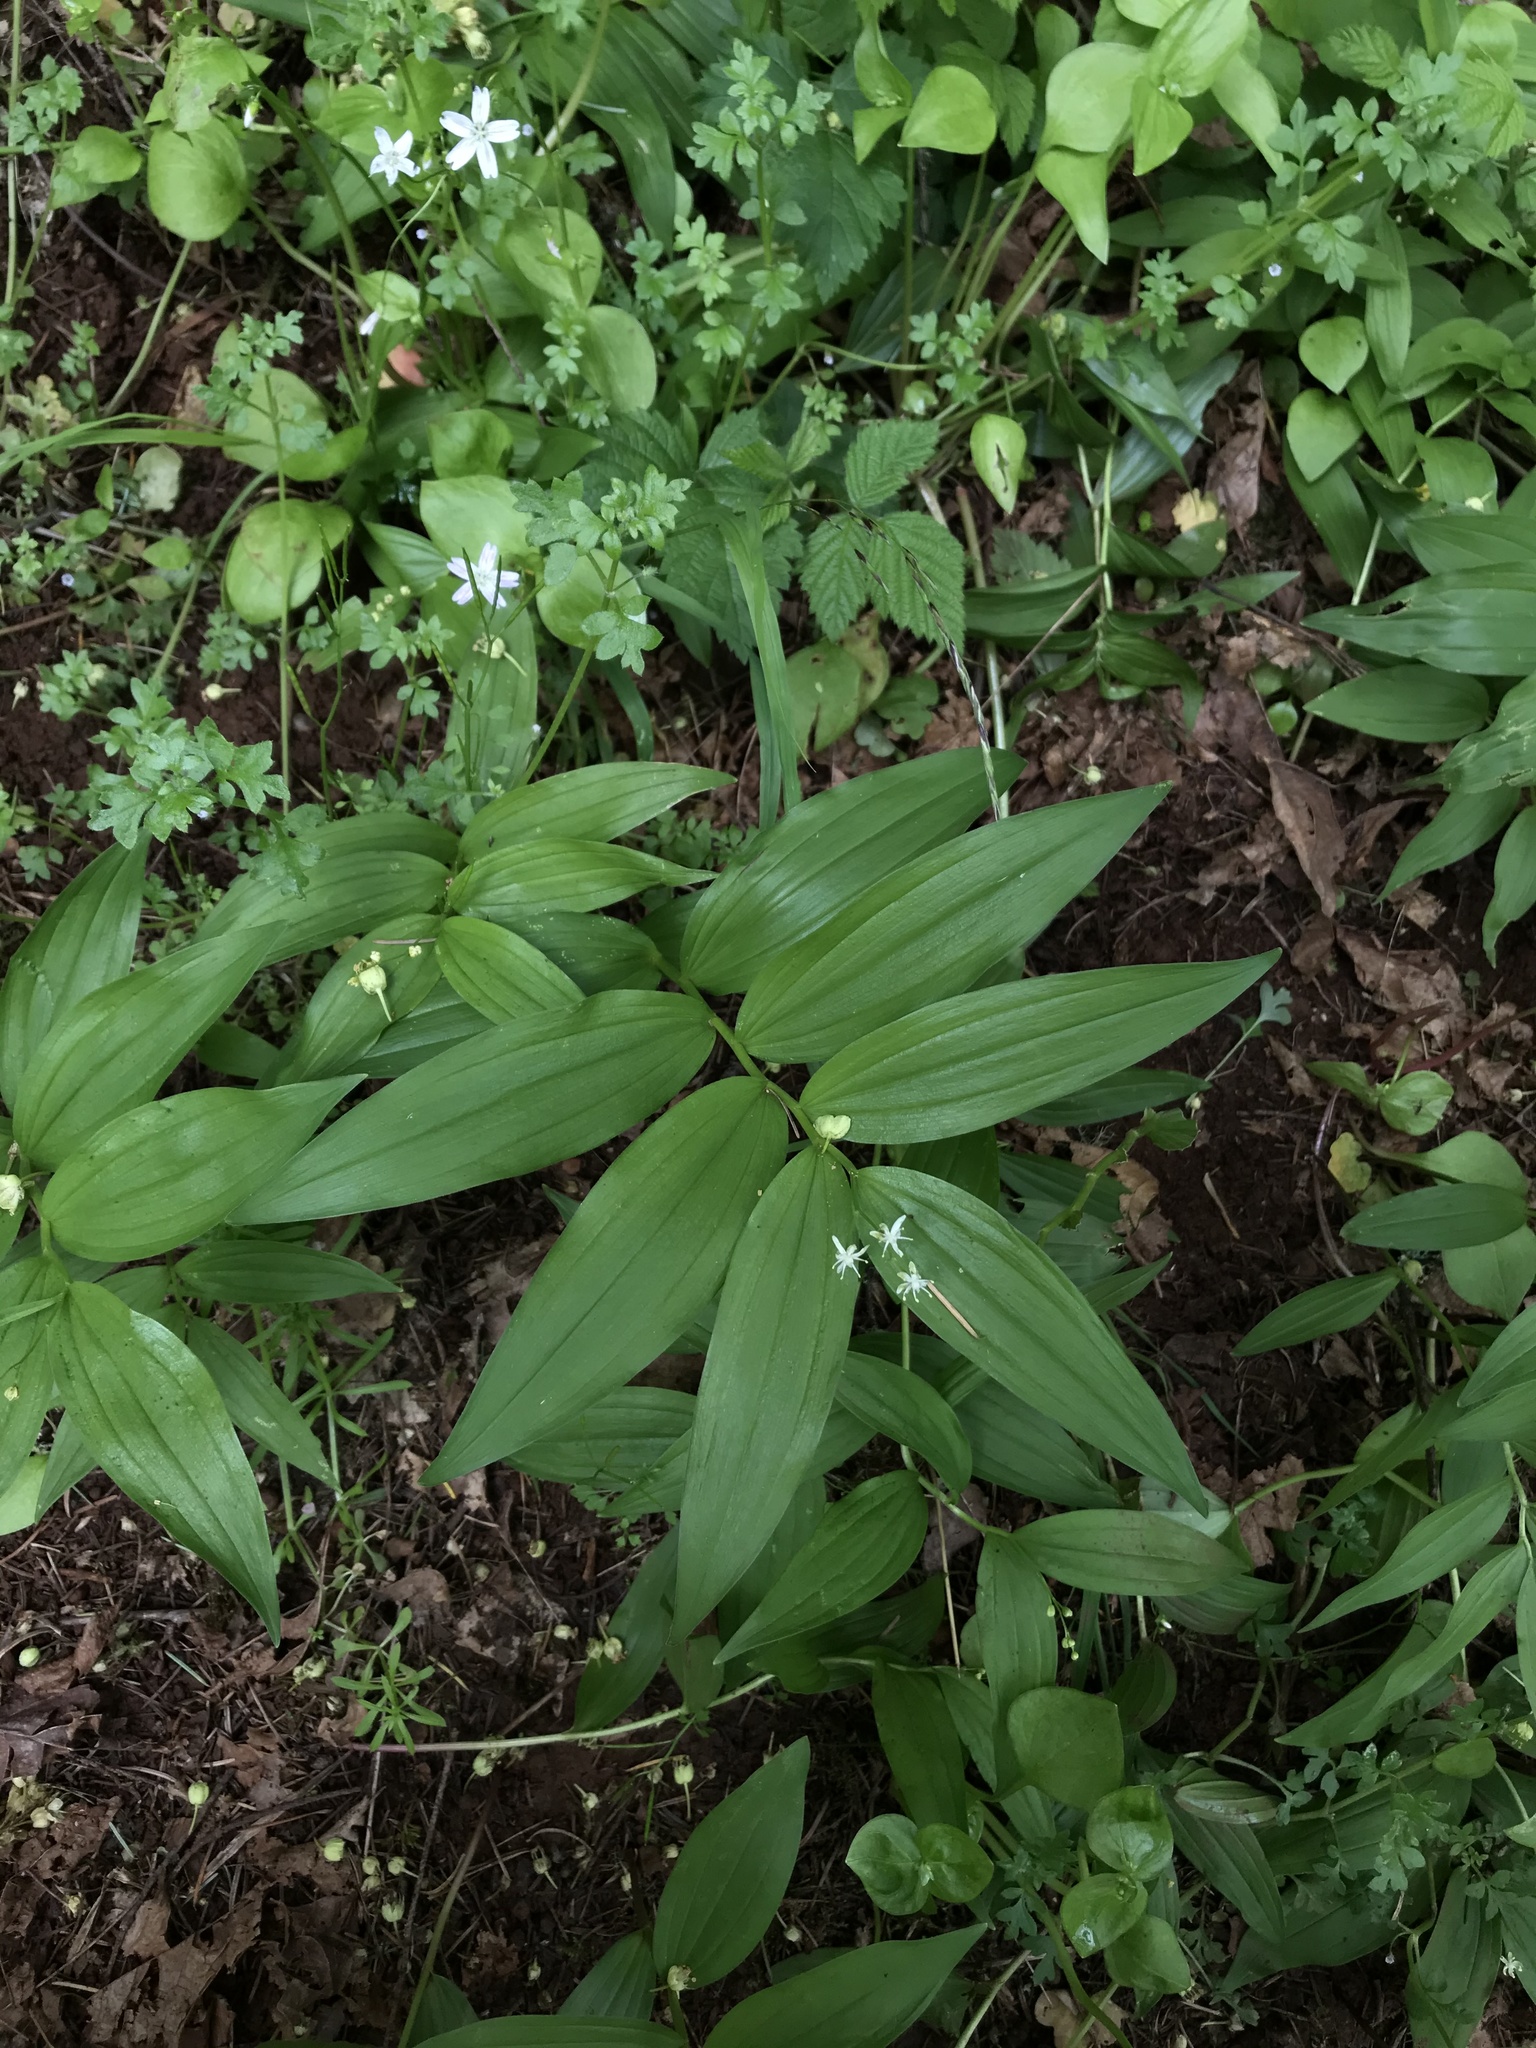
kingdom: Plantae
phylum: Tracheophyta
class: Liliopsida
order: Asparagales
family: Asparagaceae
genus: Maianthemum
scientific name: Maianthemum stellatum
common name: Little false solomon's seal
